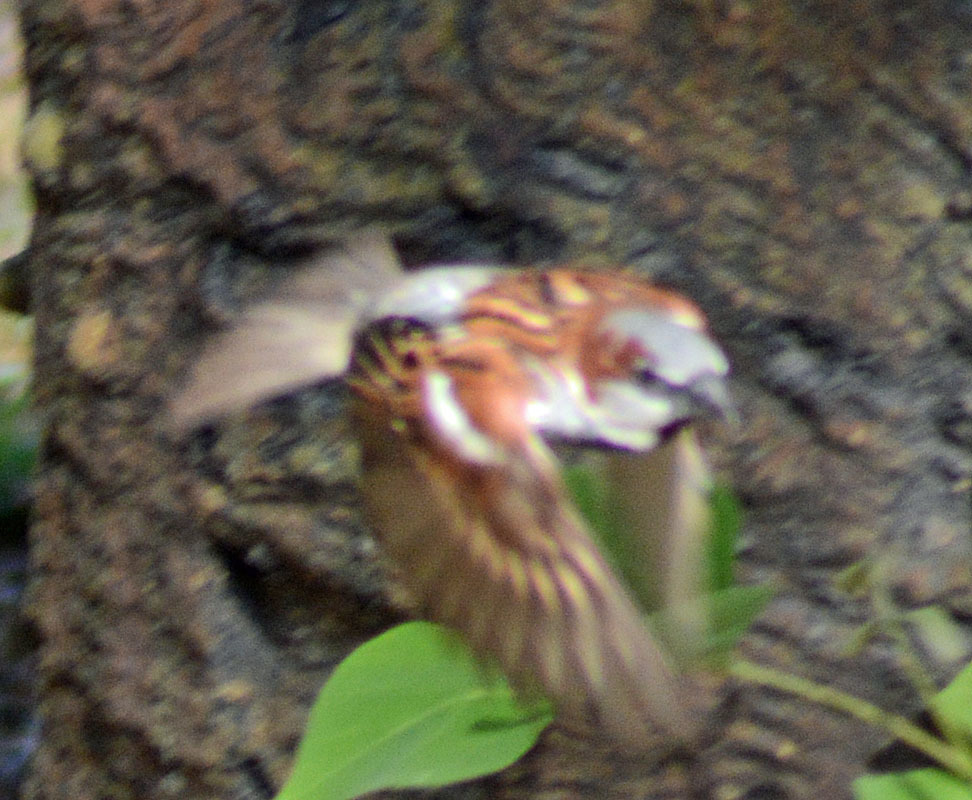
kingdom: Animalia
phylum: Chordata
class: Aves
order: Passeriformes
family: Passeridae
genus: Passer
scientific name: Passer domesticus
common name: House sparrow
